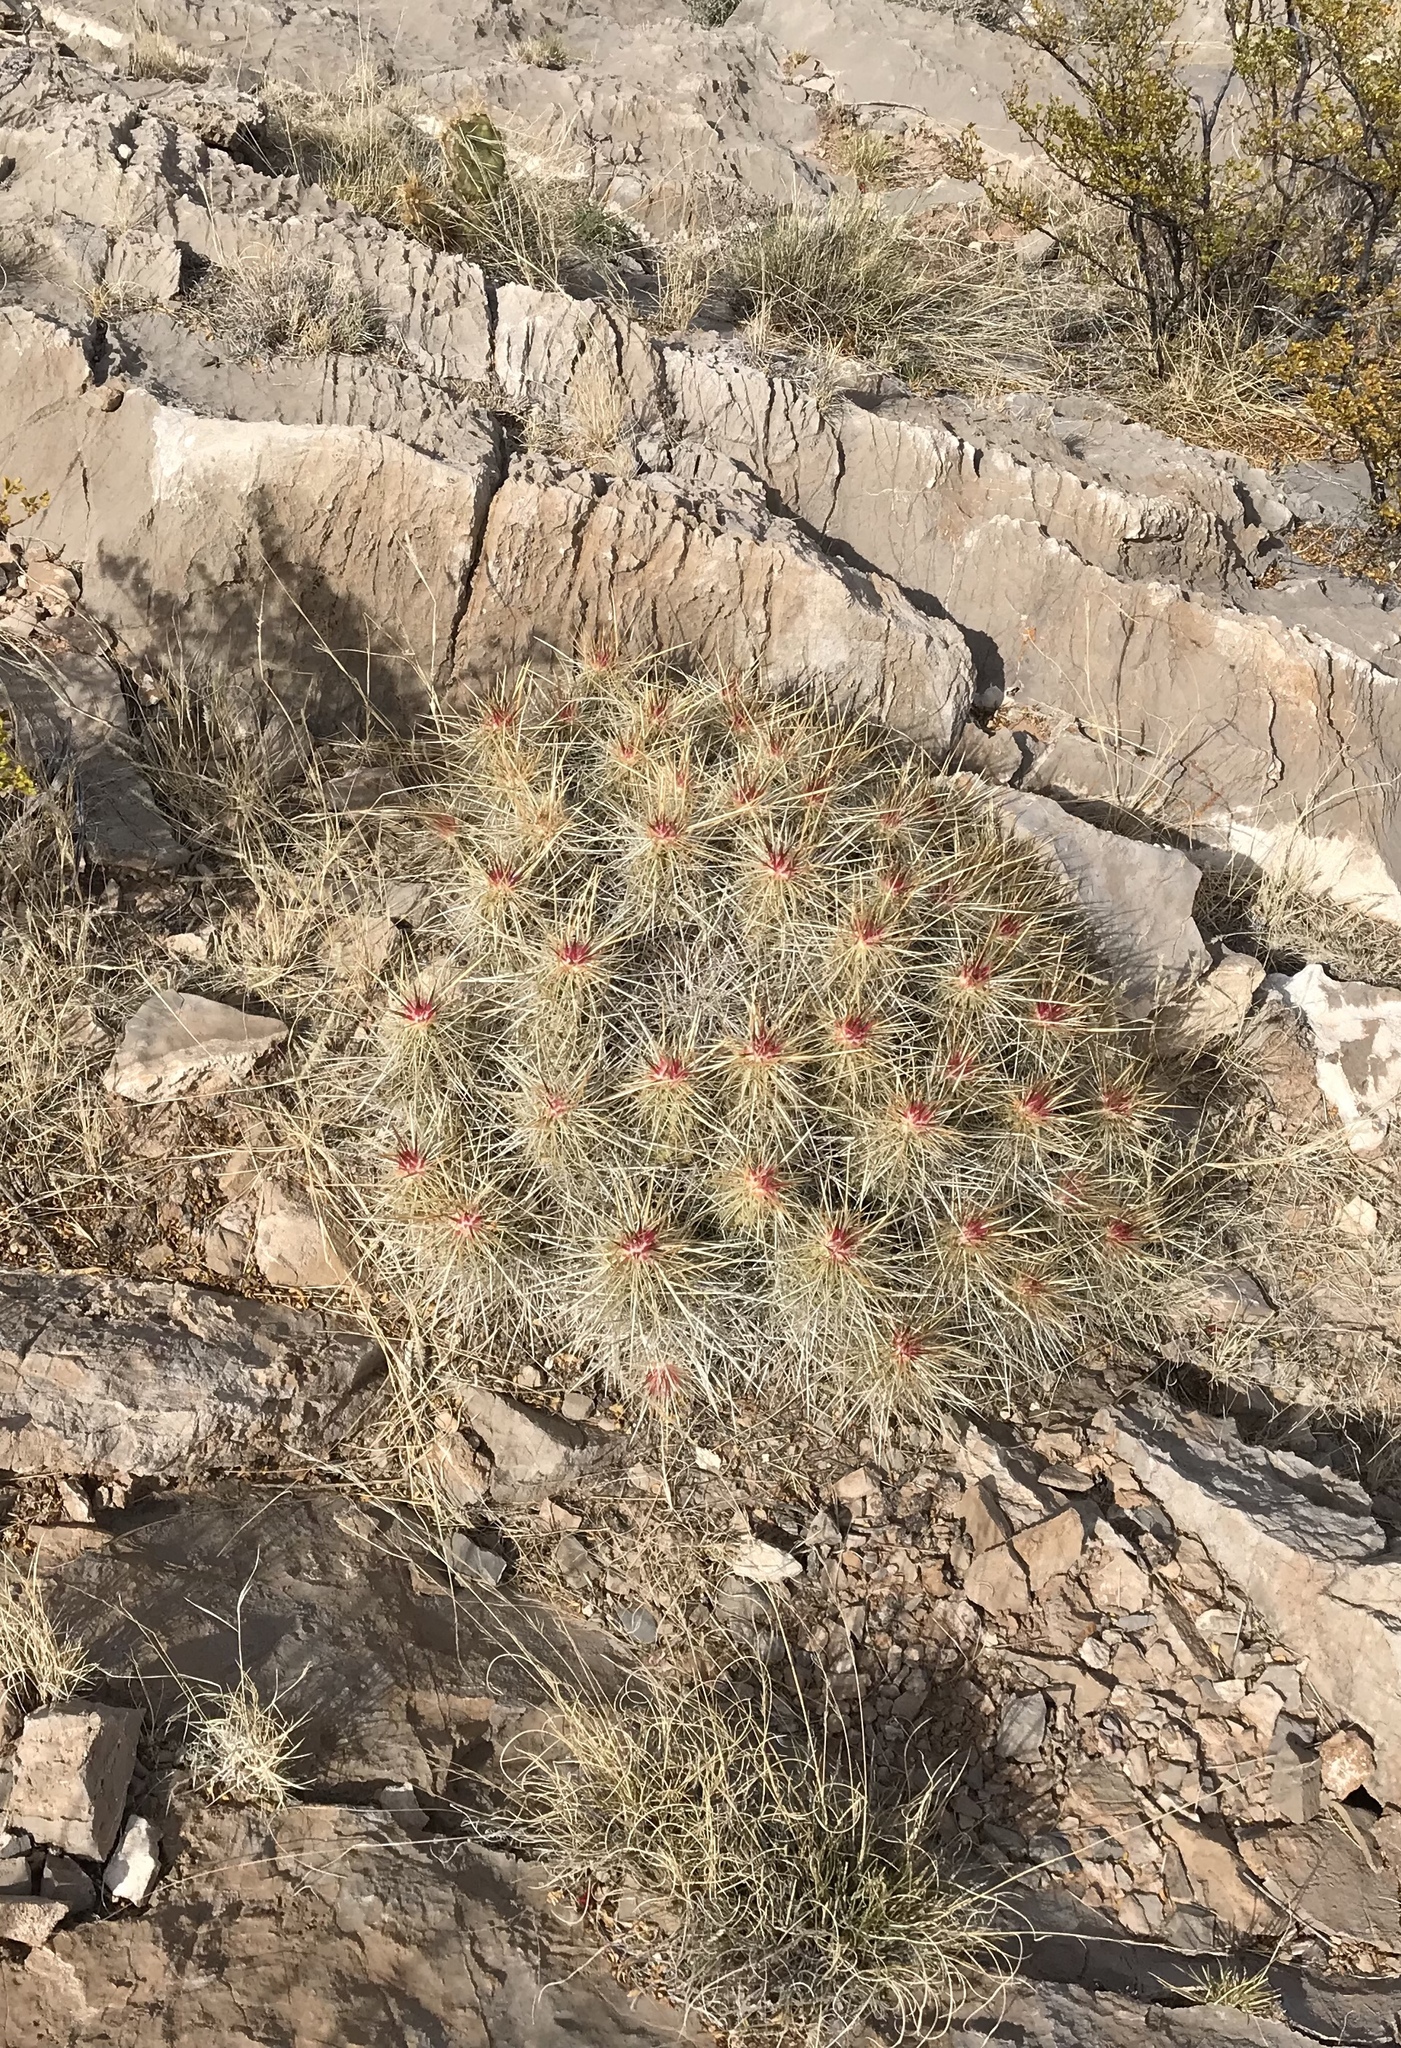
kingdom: Plantae
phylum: Tracheophyta
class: Magnoliopsida
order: Caryophyllales
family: Cactaceae
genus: Echinocereus
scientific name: Echinocereus stramineus
